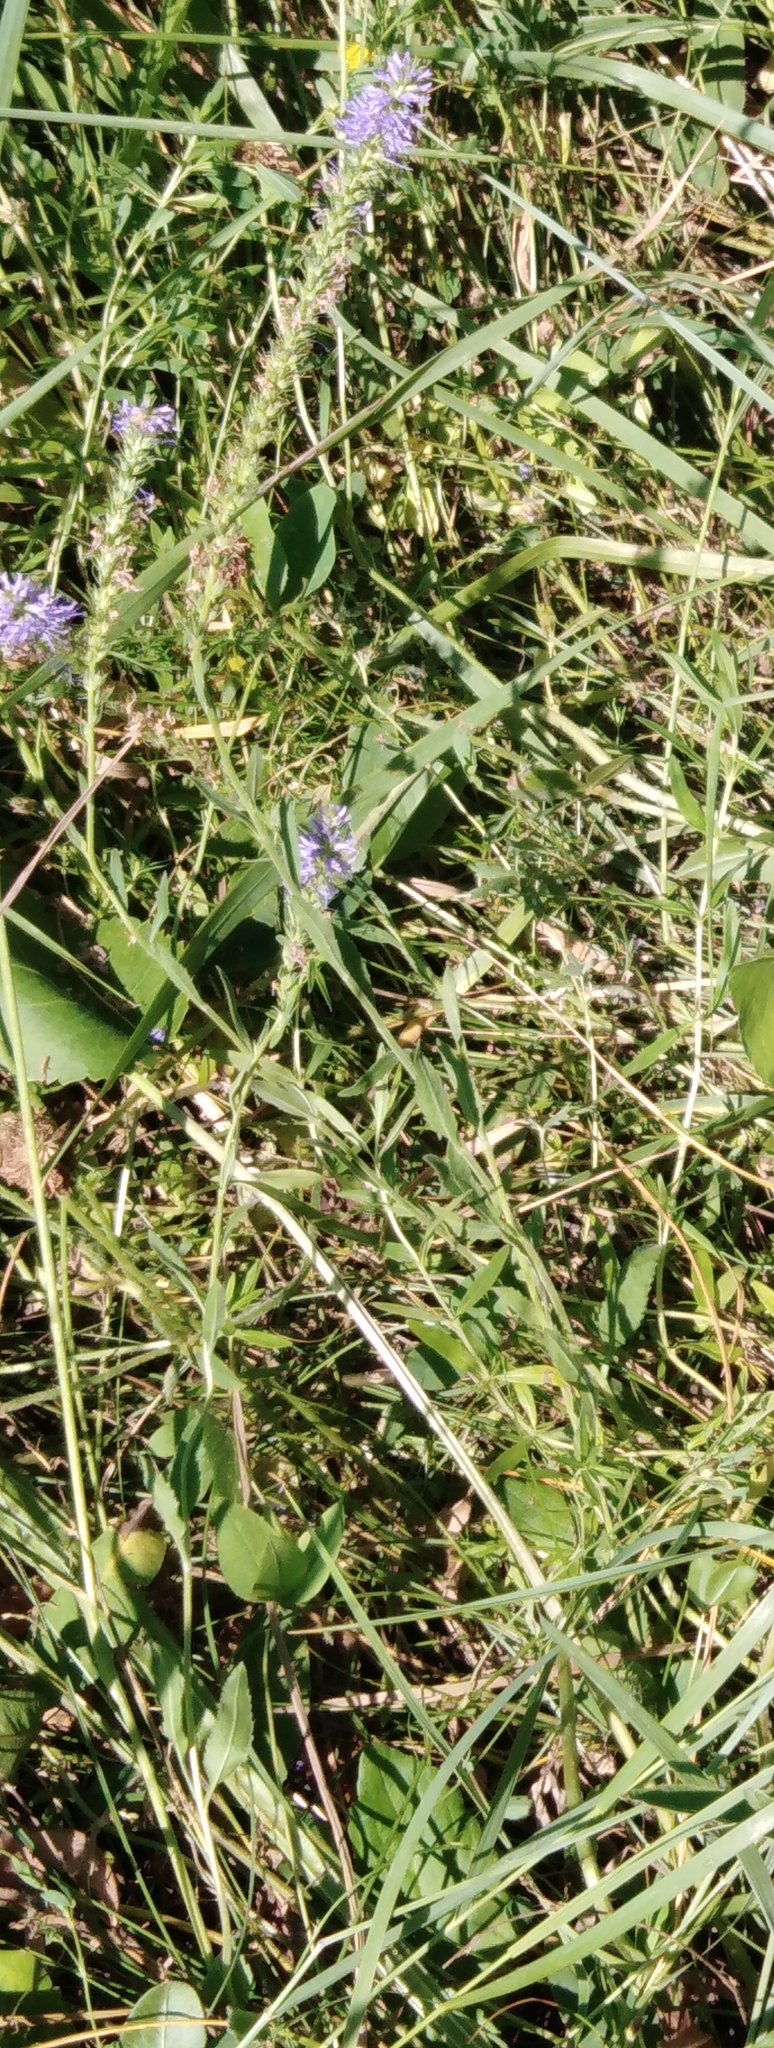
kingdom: Plantae
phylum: Tracheophyta
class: Magnoliopsida
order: Lamiales
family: Plantaginaceae
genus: Veronica
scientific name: Veronica spicata
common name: Spiked speedwell
